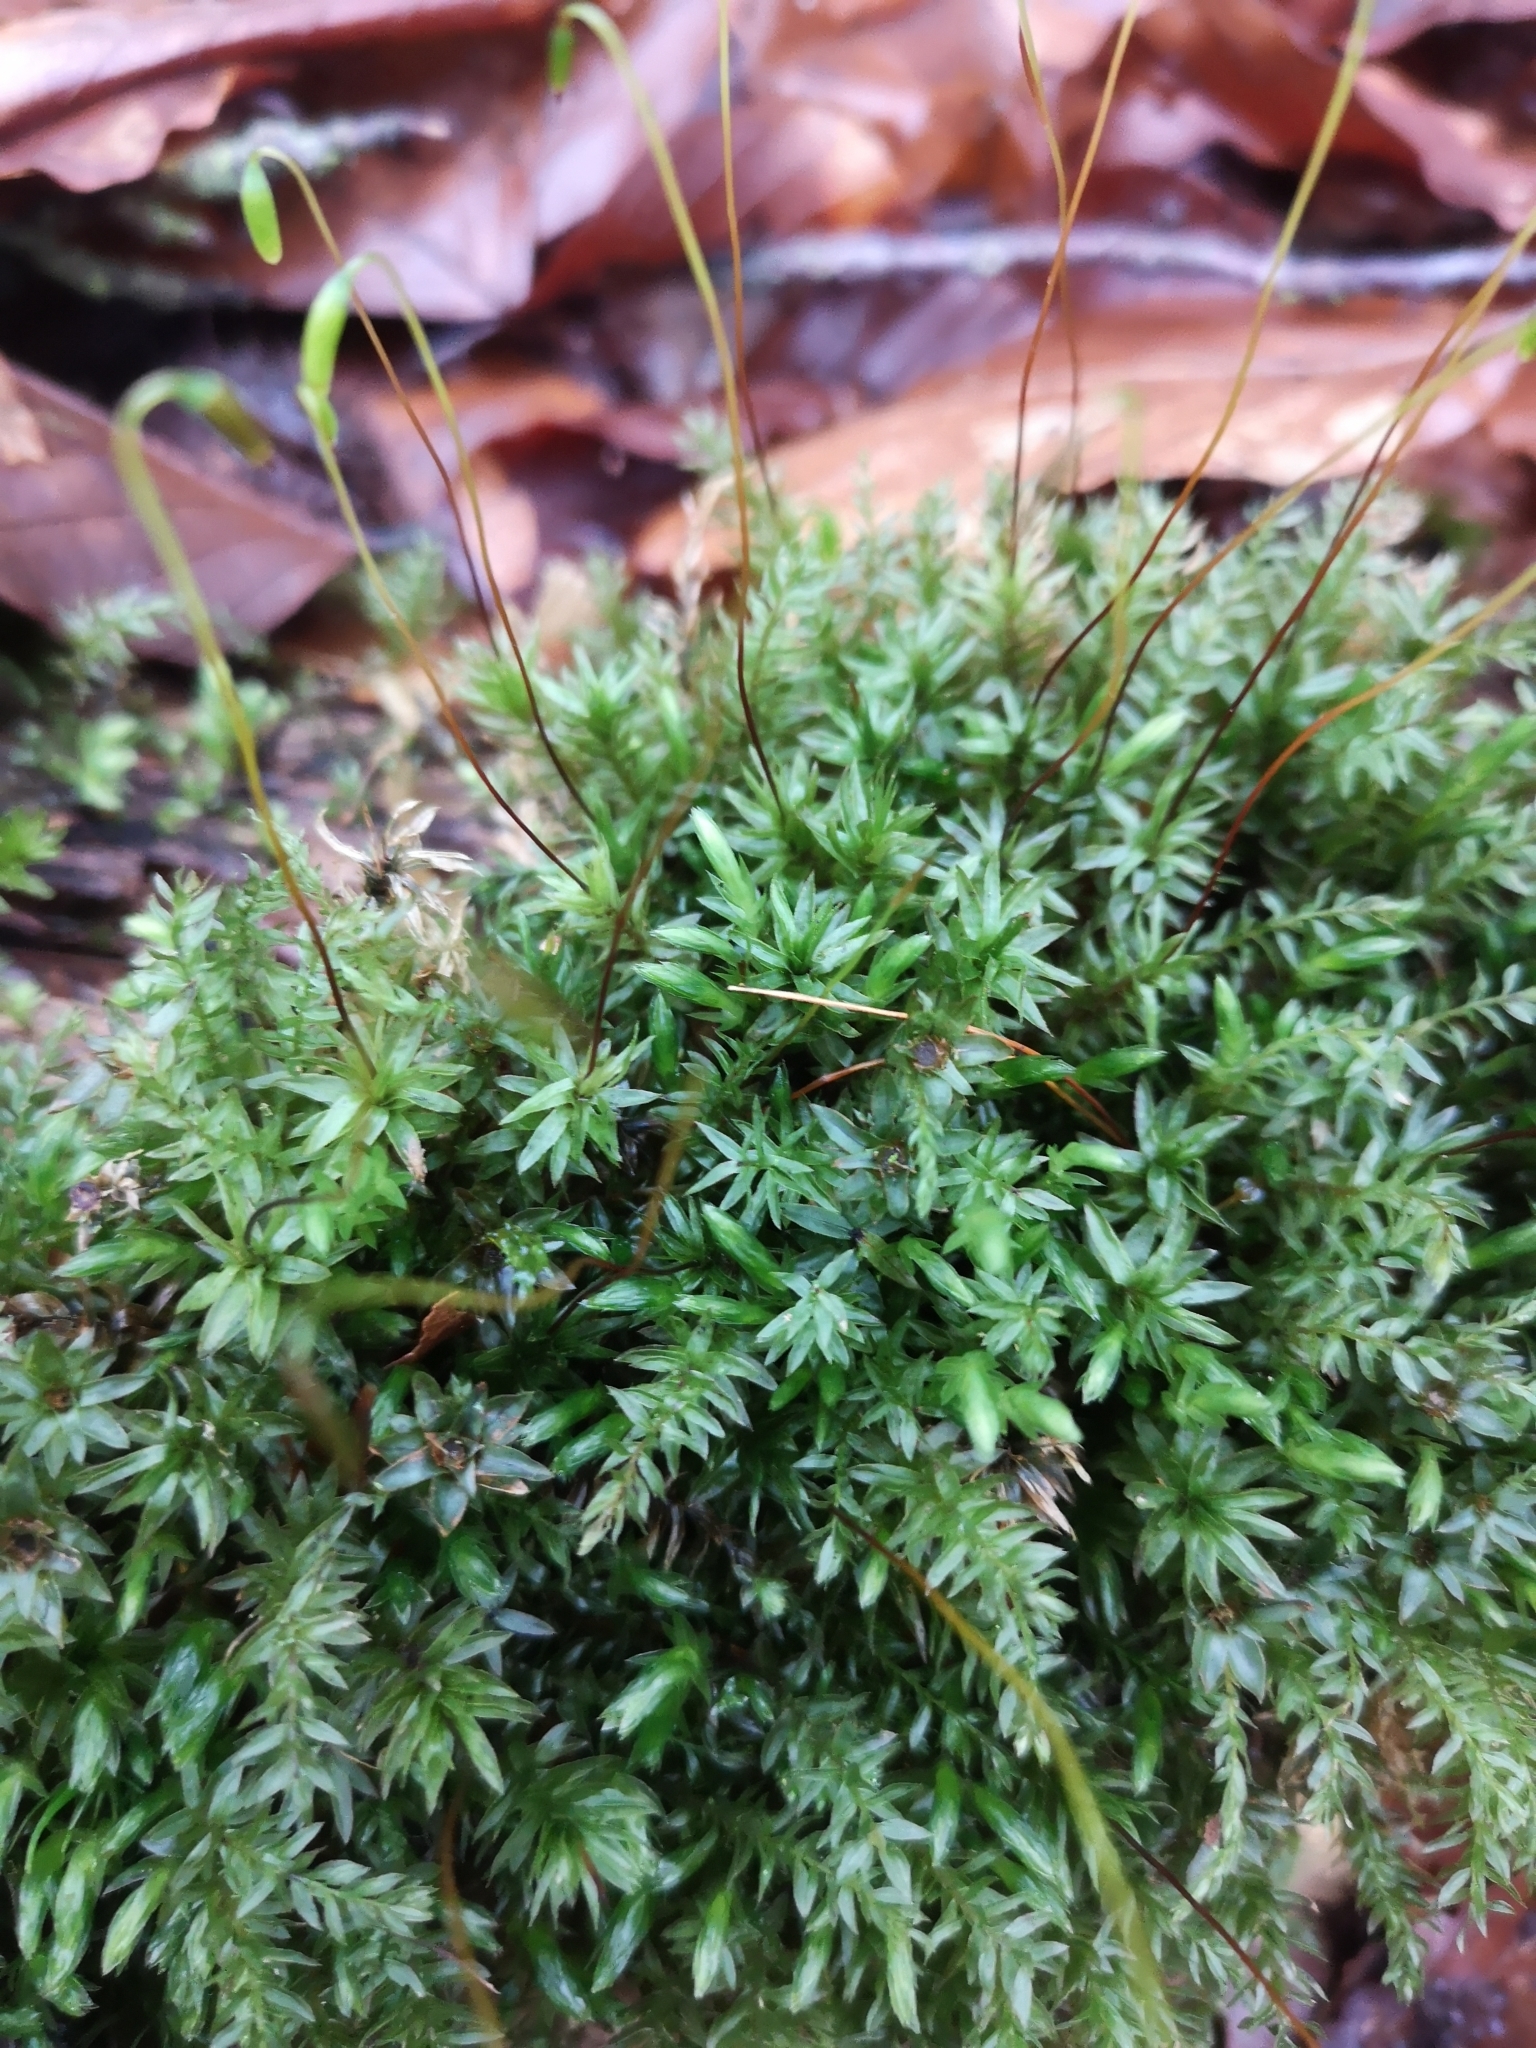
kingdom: Plantae
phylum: Bryophyta
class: Bryopsida
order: Bryales
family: Mniaceae
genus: Mnium
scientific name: Mnium hornum
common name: Swan's-neck leafy moss
